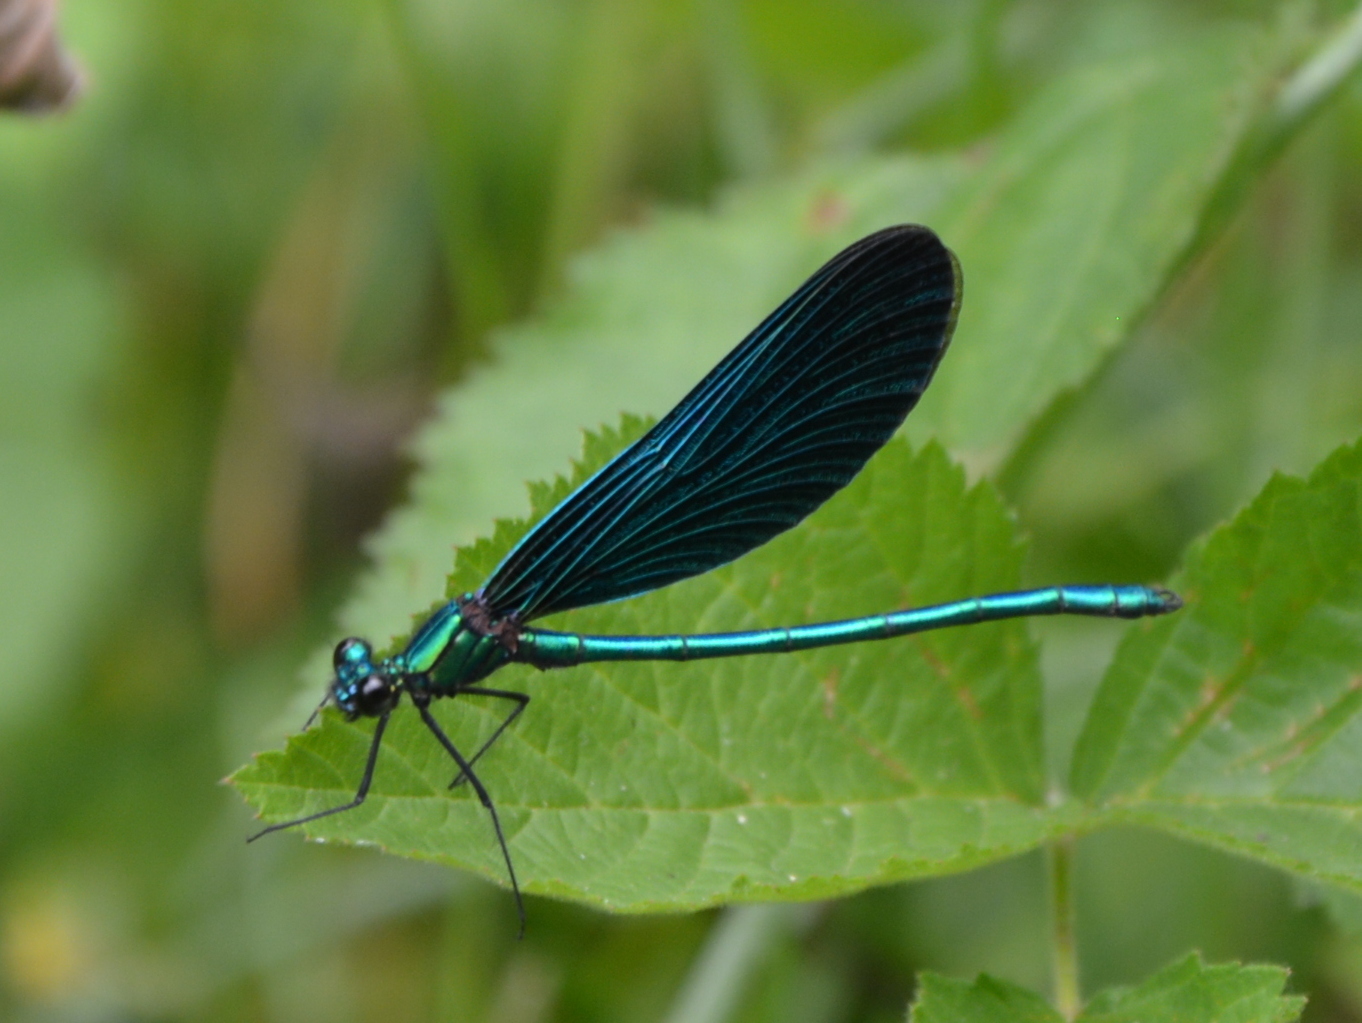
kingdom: Animalia
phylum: Arthropoda
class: Insecta
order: Odonata
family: Calopterygidae
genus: Calopteryx
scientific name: Calopteryx virgo
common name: Beautiful demoiselle
